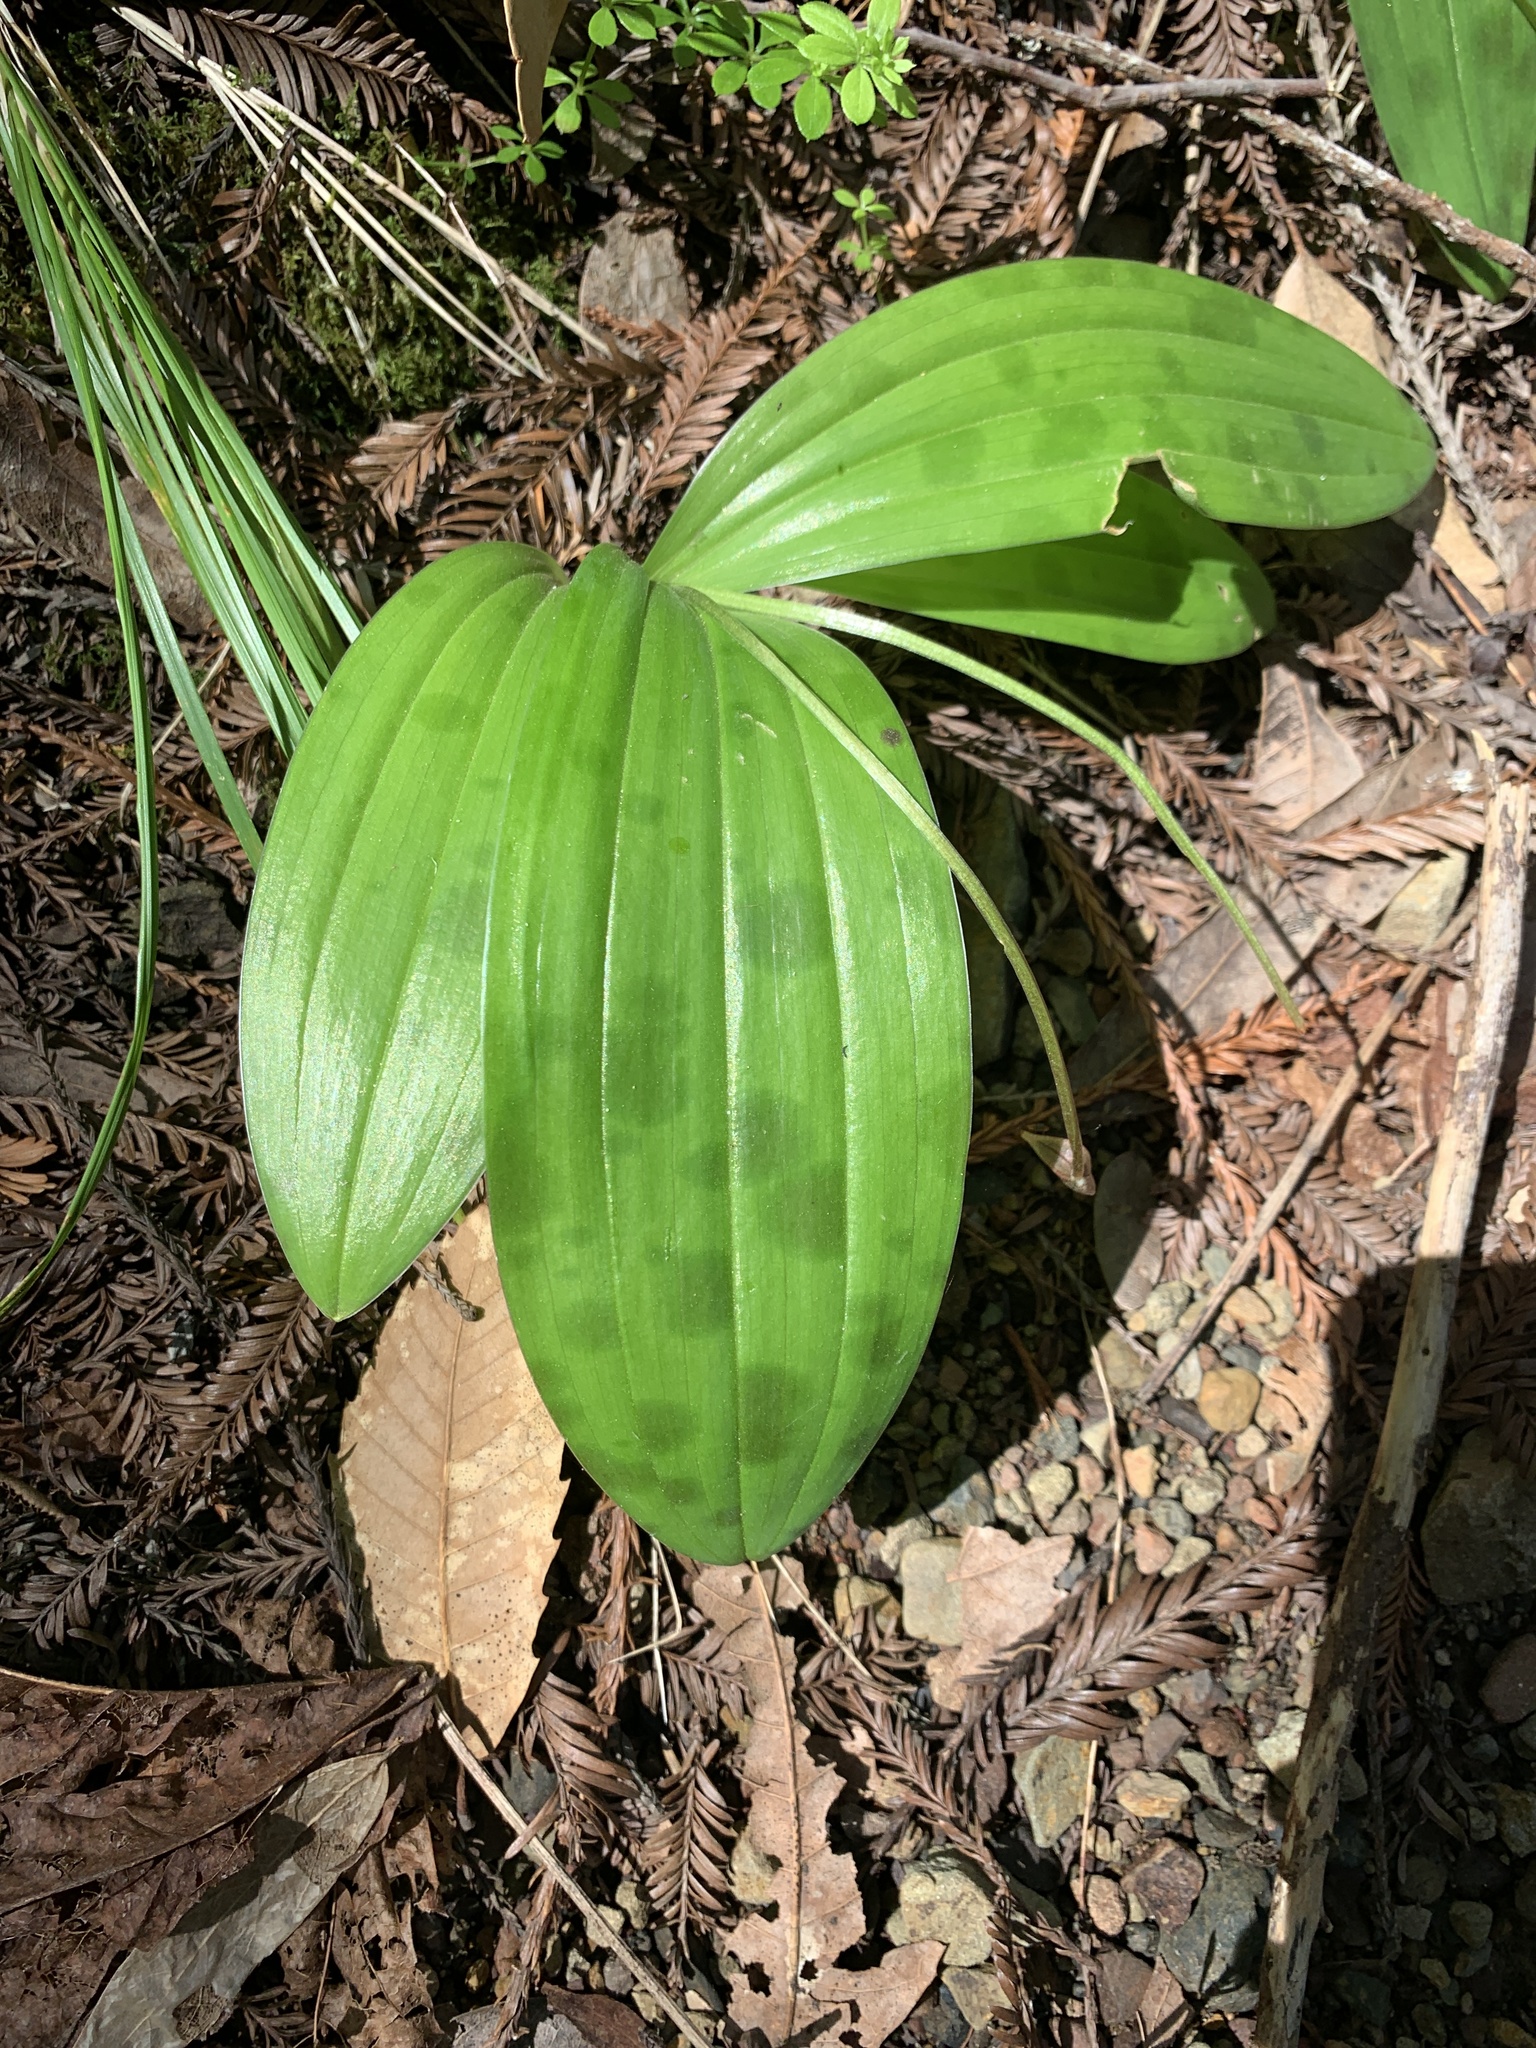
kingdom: Plantae
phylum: Tracheophyta
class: Liliopsida
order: Liliales
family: Liliaceae
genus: Scoliopus
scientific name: Scoliopus bigelovii
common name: Foetid adder's-tongue
